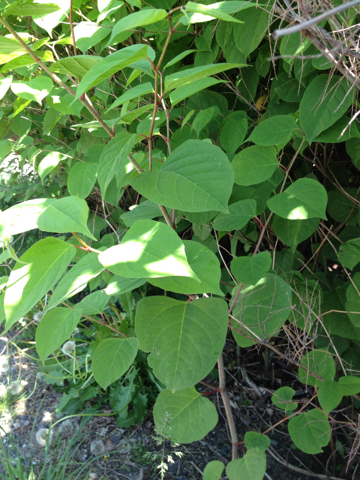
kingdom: Plantae
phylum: Tracheophyta
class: Magnoliopsida
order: Caryophyllales
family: Polygonaceae
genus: Reynoutria
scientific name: Reynoutria japonica
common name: Japanese knotweed
